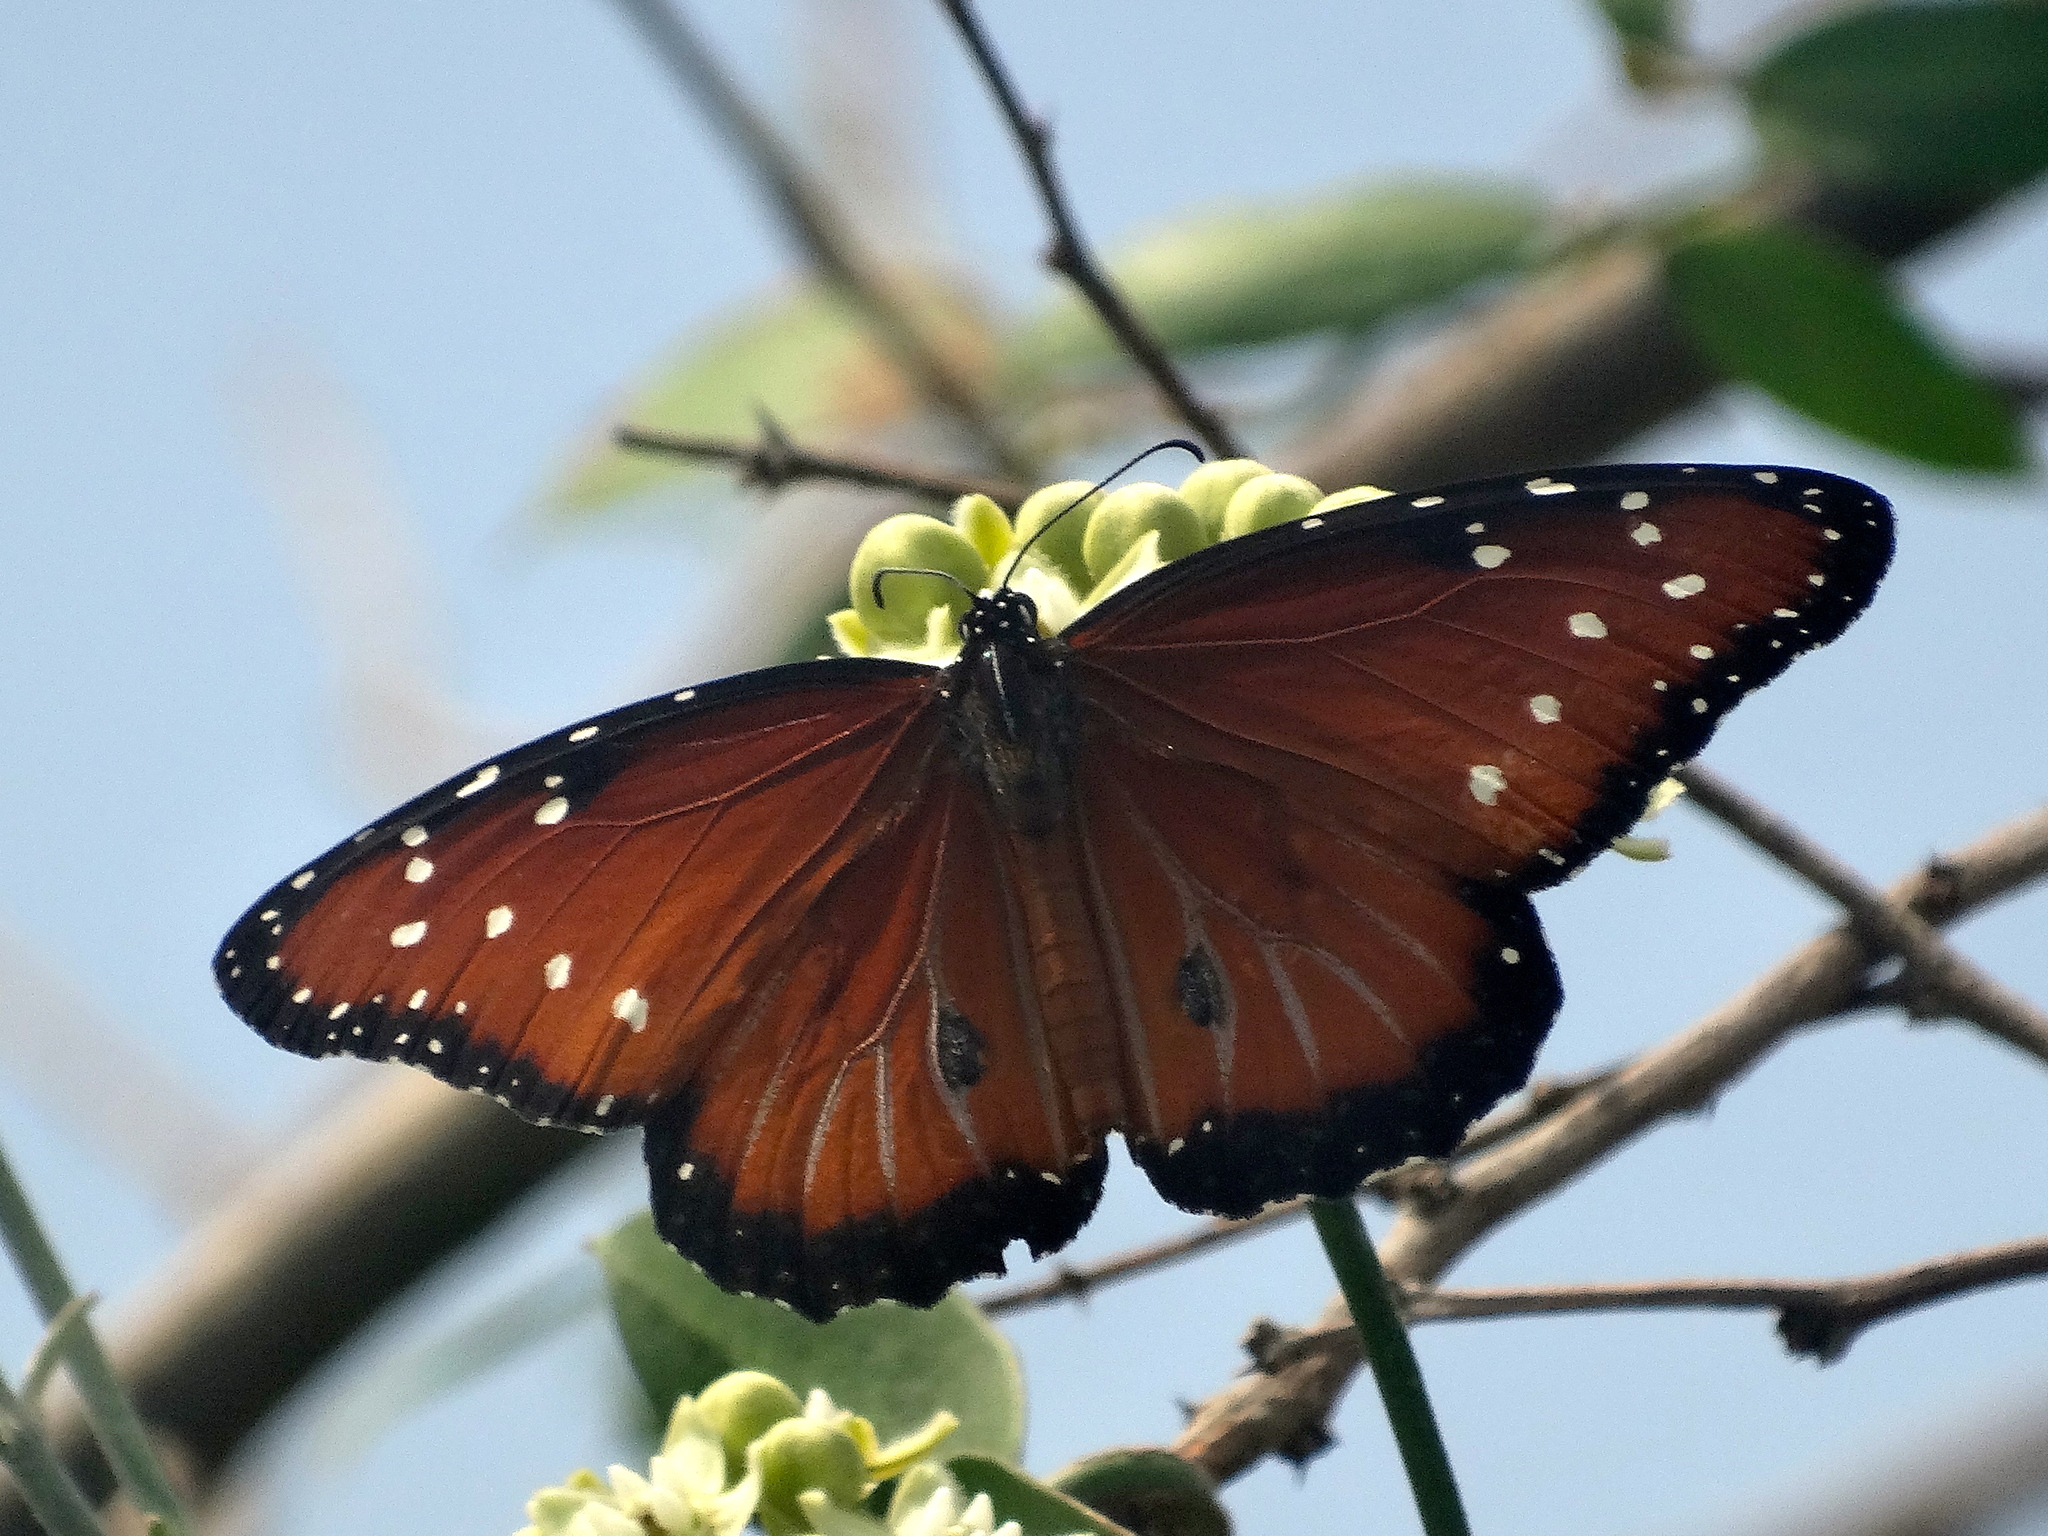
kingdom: Animalia
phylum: Arthropoda
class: Insecta
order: Lepidoptera
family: Nymphalidae
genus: Danaus
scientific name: Danaus gilippus
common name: Queen
